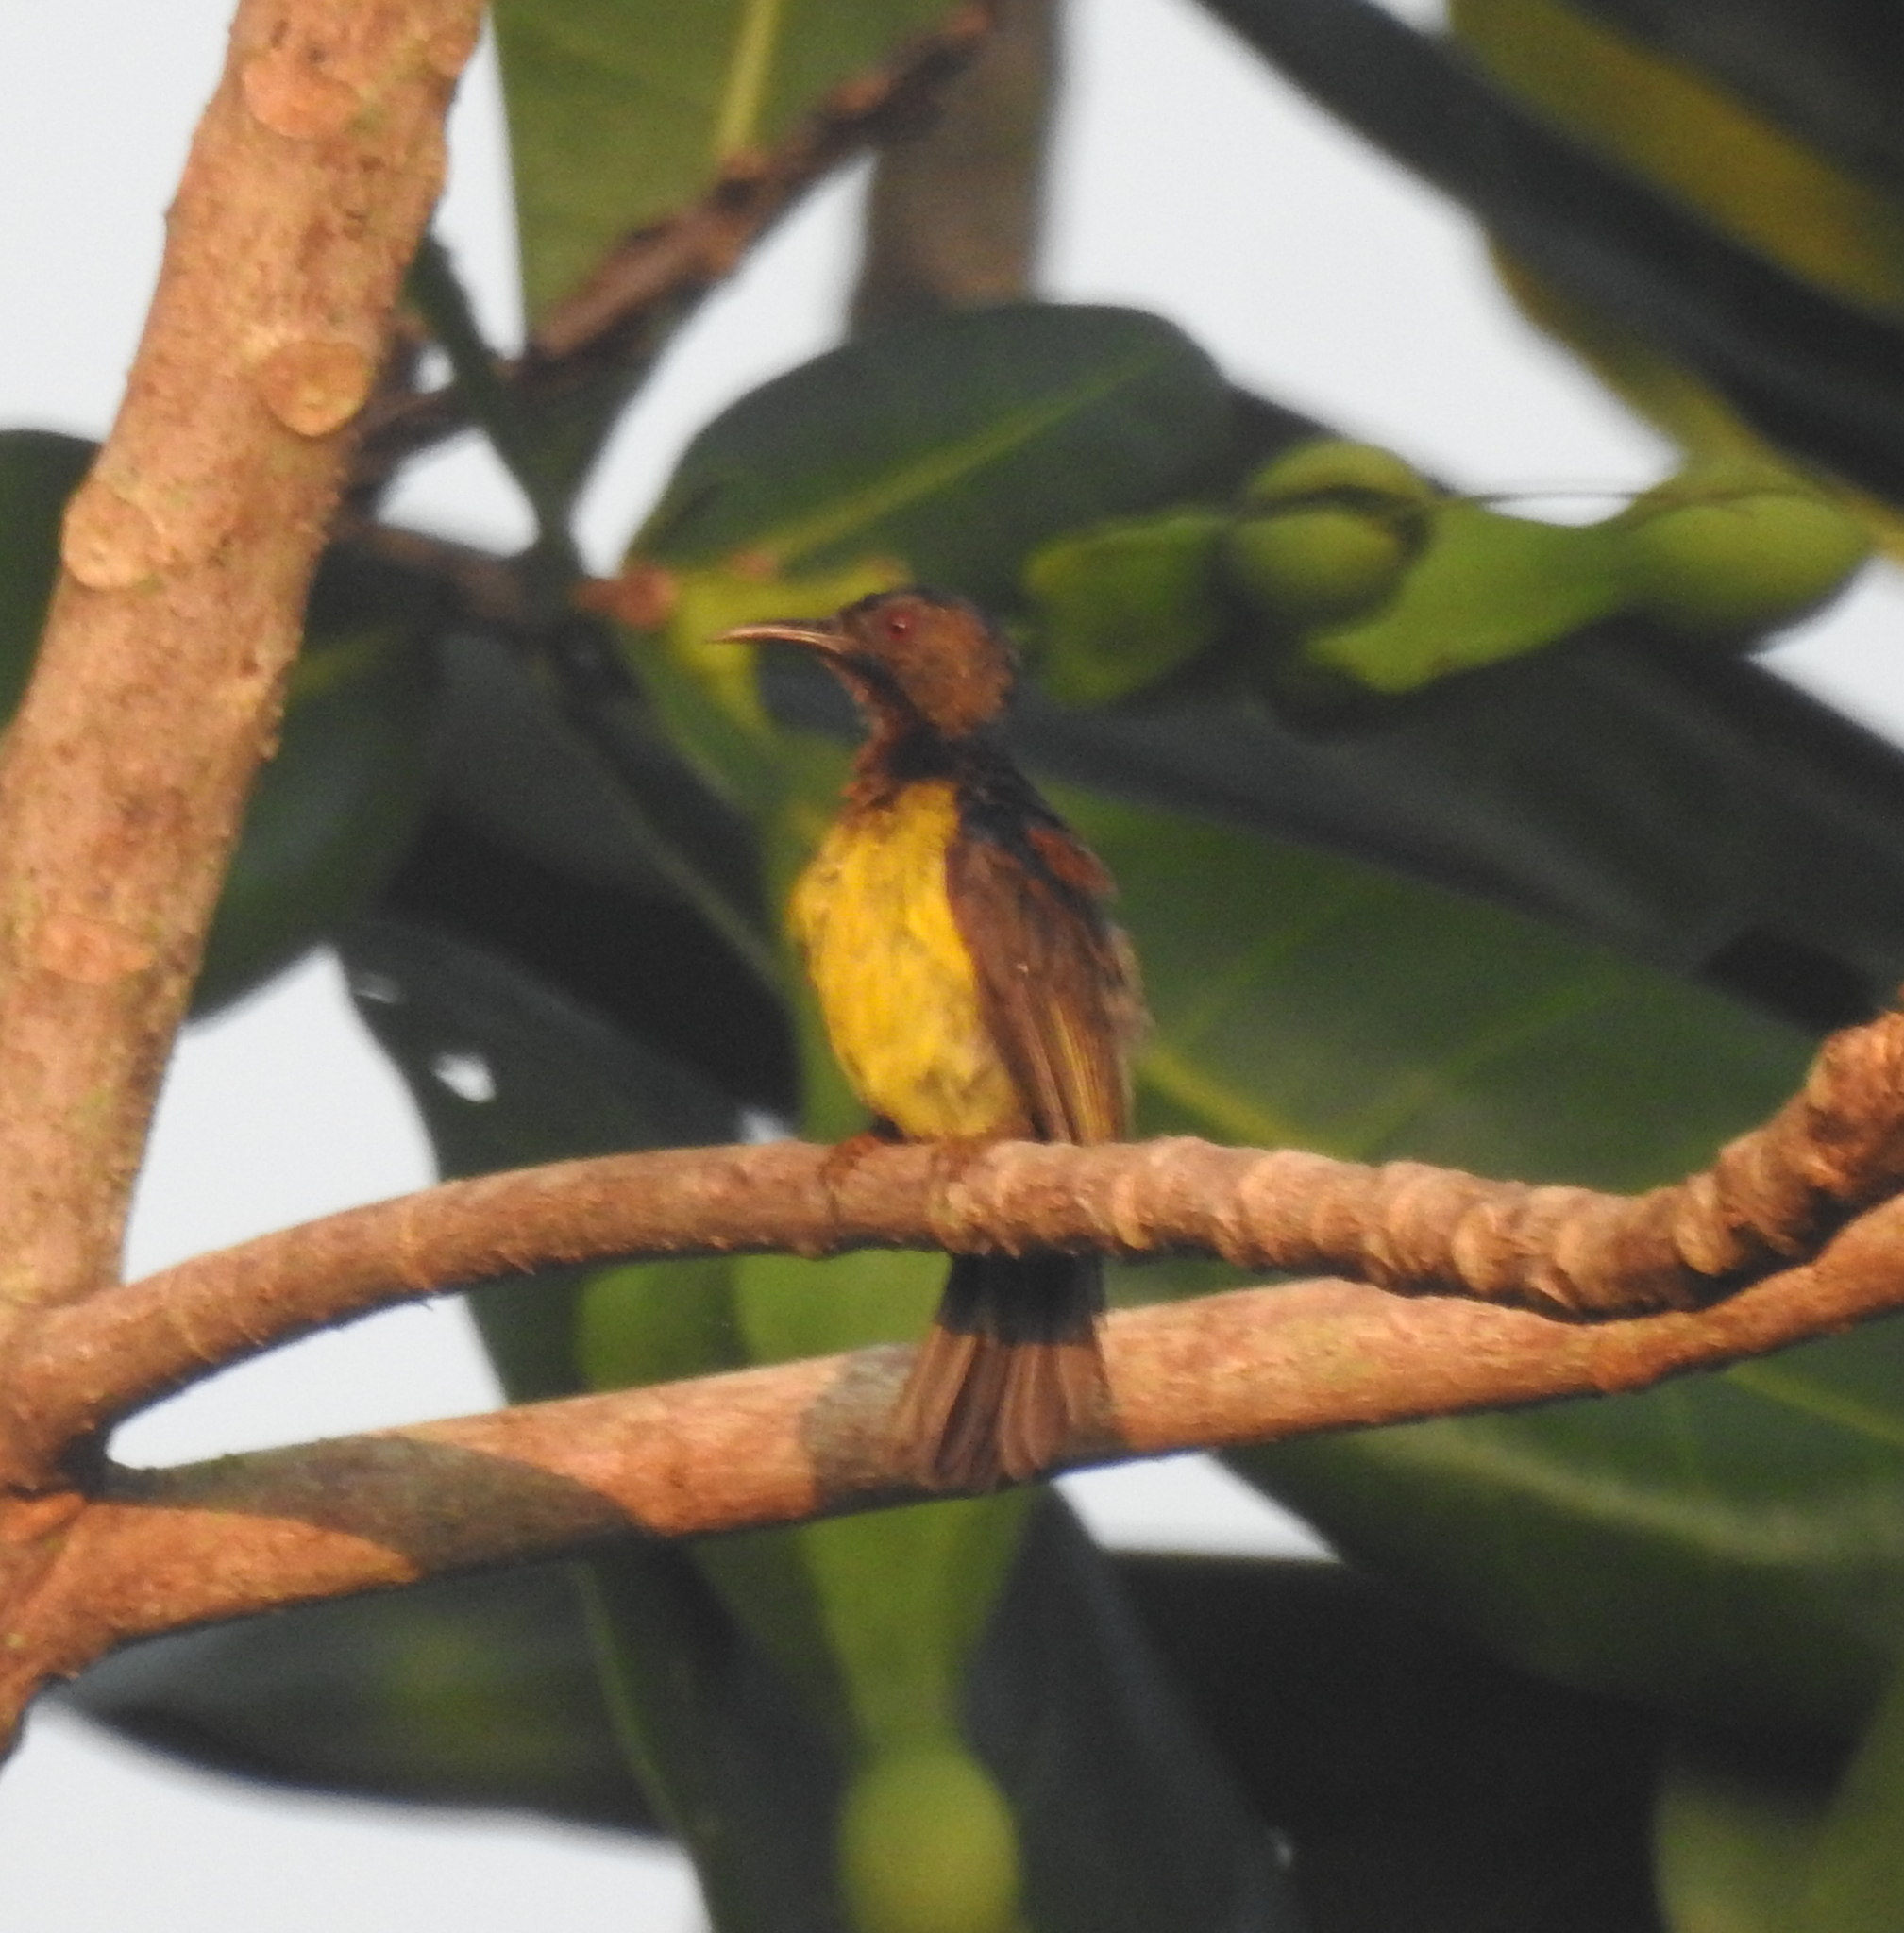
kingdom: Animalia
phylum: Chordata
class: Aves
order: Passeriformes
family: Nectariniidae
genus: Anthreptes
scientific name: Anthreptes malacensis
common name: Brown-throated sunbird
